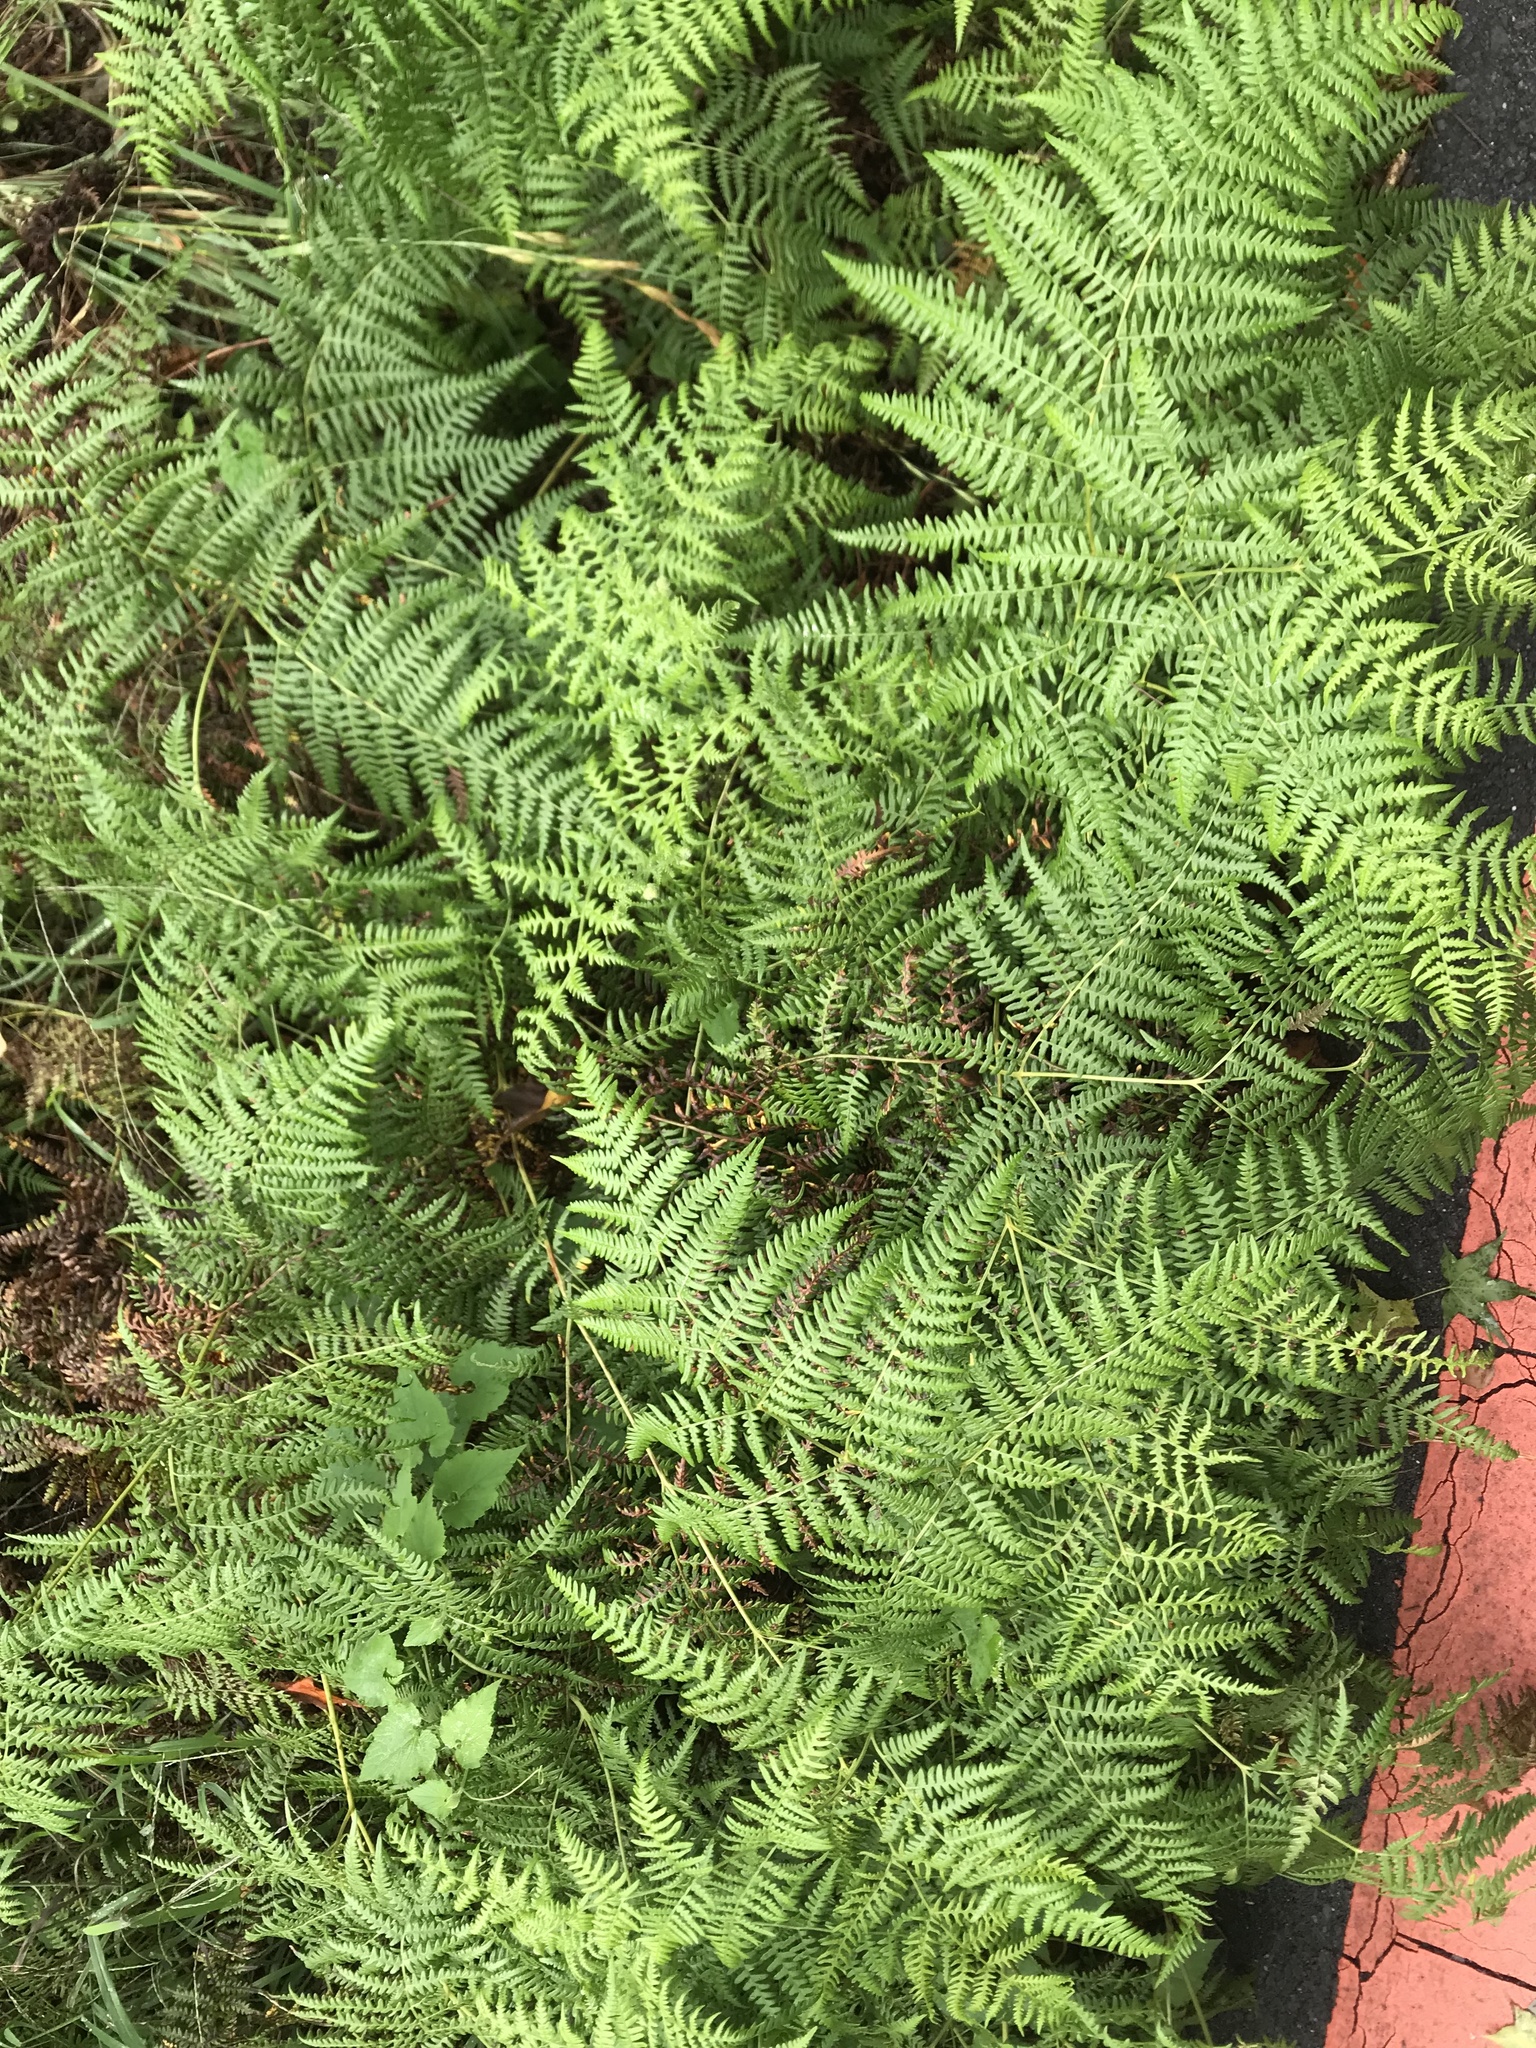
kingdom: Plantae
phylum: Tracheophyta
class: Polypodiopsida
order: Polypodiales
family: Dennstaedtiaceae
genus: Pteridium
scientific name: Pteridium aquilinum
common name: Bracken
